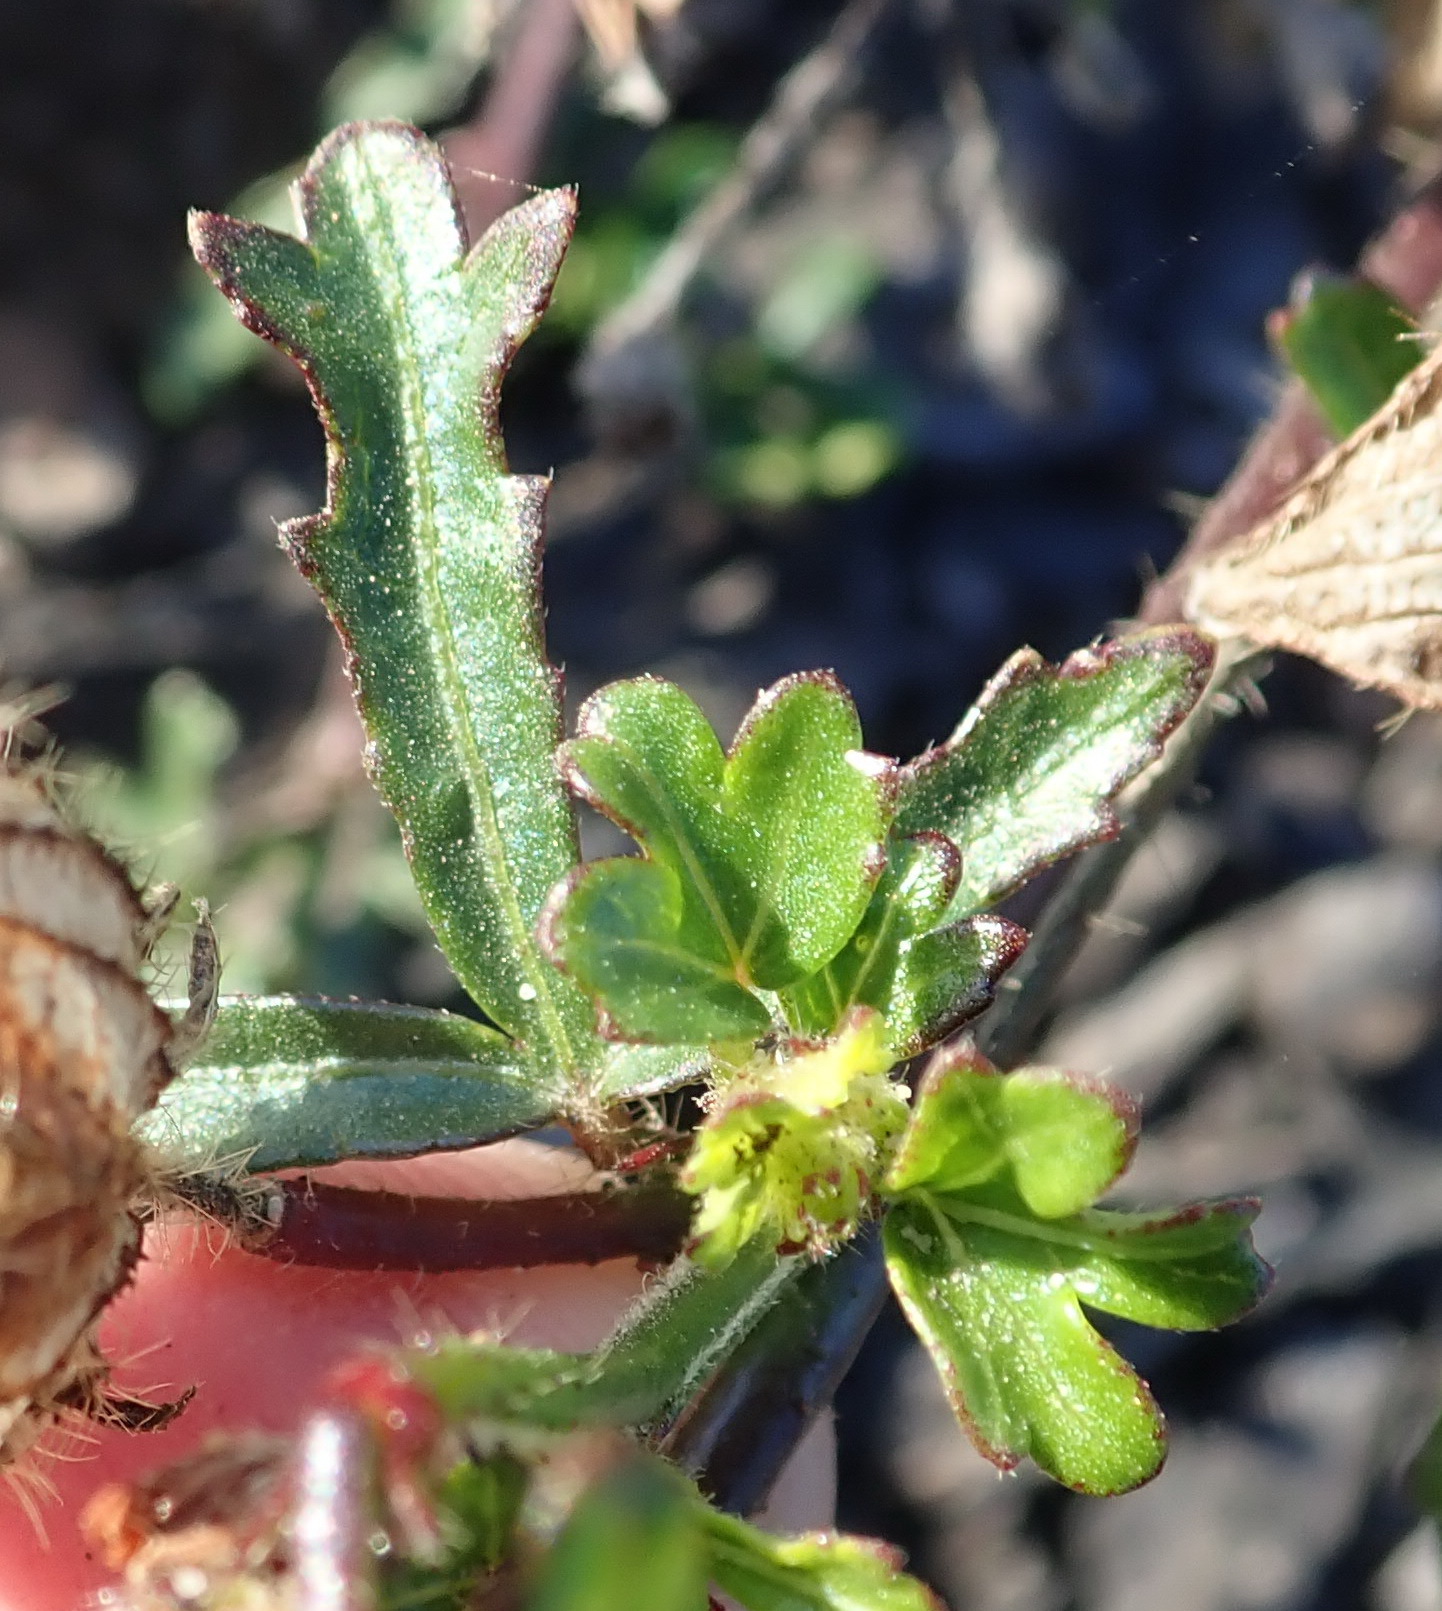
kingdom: Plantae
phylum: Tracheophyta
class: Magnoliopsida
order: Malvales
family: Malvaceae
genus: Hibiscus
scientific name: Hibiscus trionum
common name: Bladder ketmia
